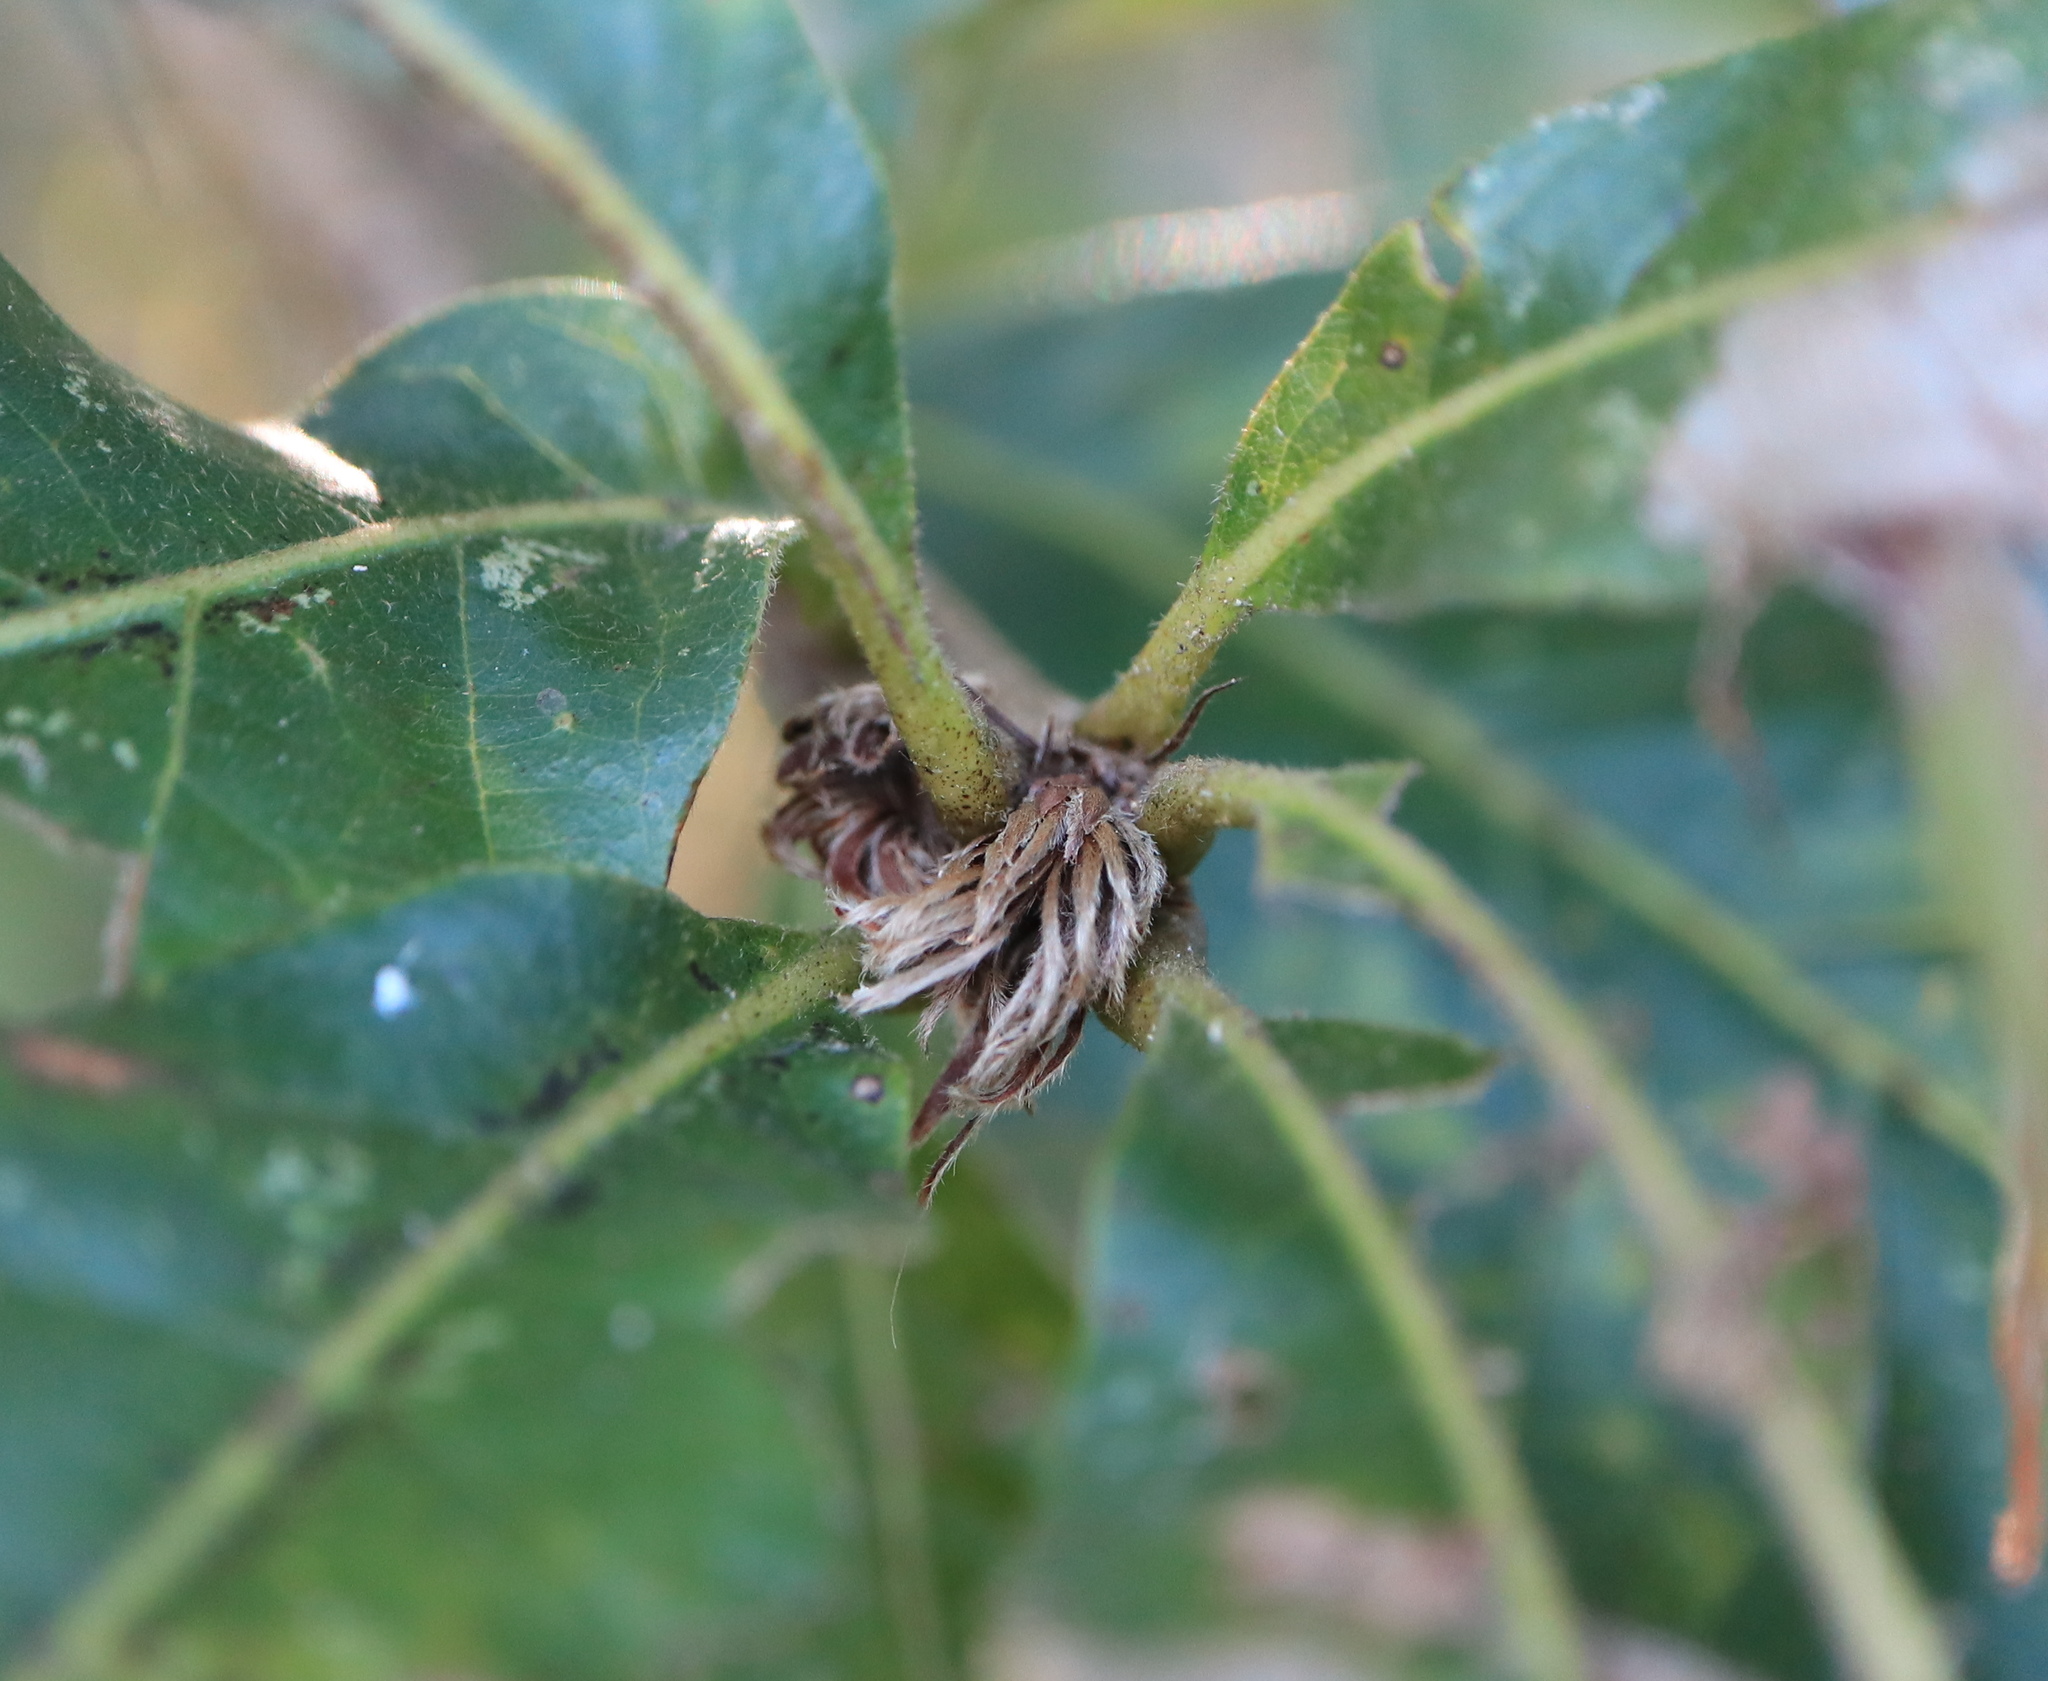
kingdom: Animalia
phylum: Arthropoda
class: Insecta
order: Hymenoptera
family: Cynipidae
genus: Andricus
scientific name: Andricus
